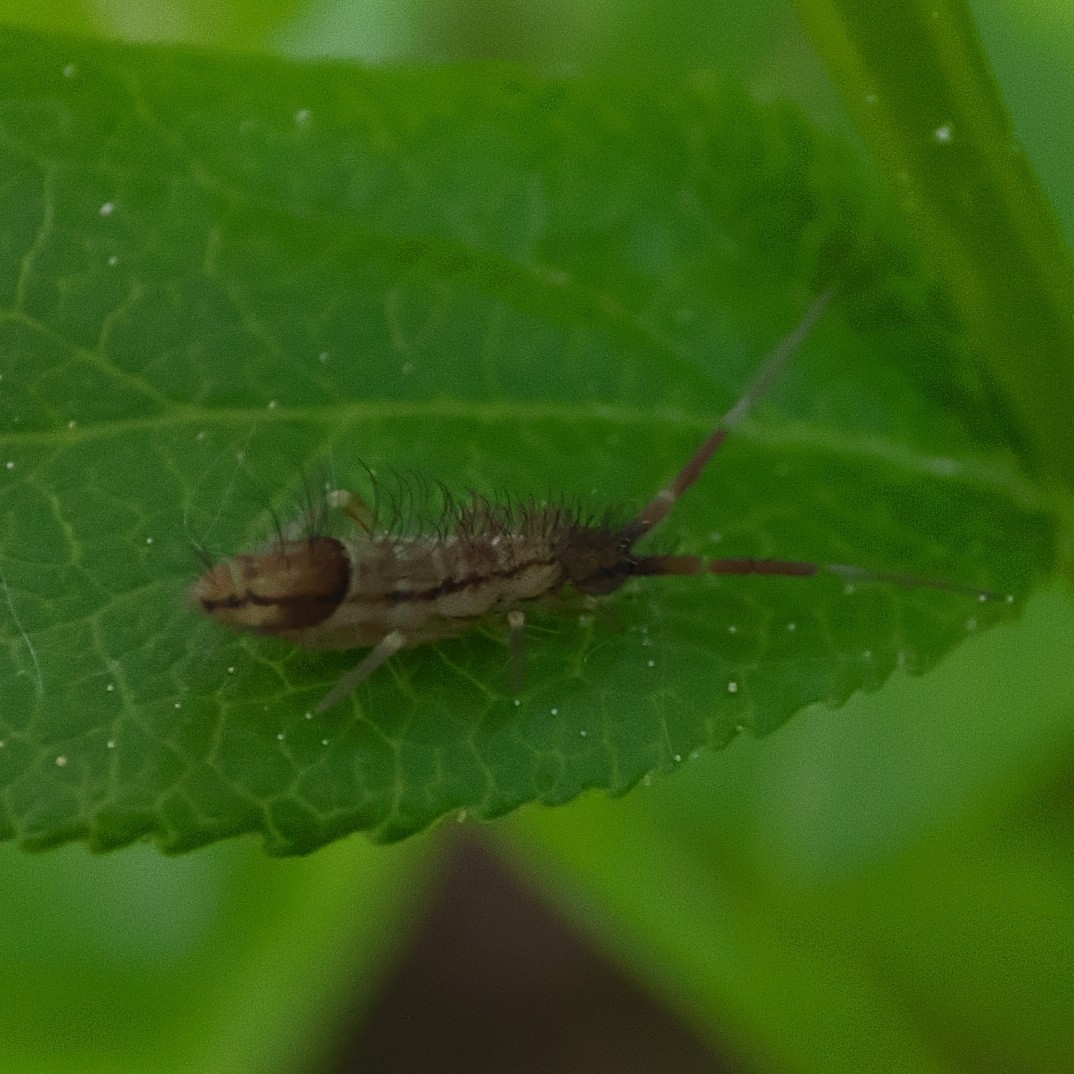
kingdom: Animalia
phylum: Arthropoda
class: Collembola
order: Entomobryomorpha
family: Entomobryidae
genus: Entomobrya
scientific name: Entomobrya nivalis
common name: Cosmopolitan springtail
